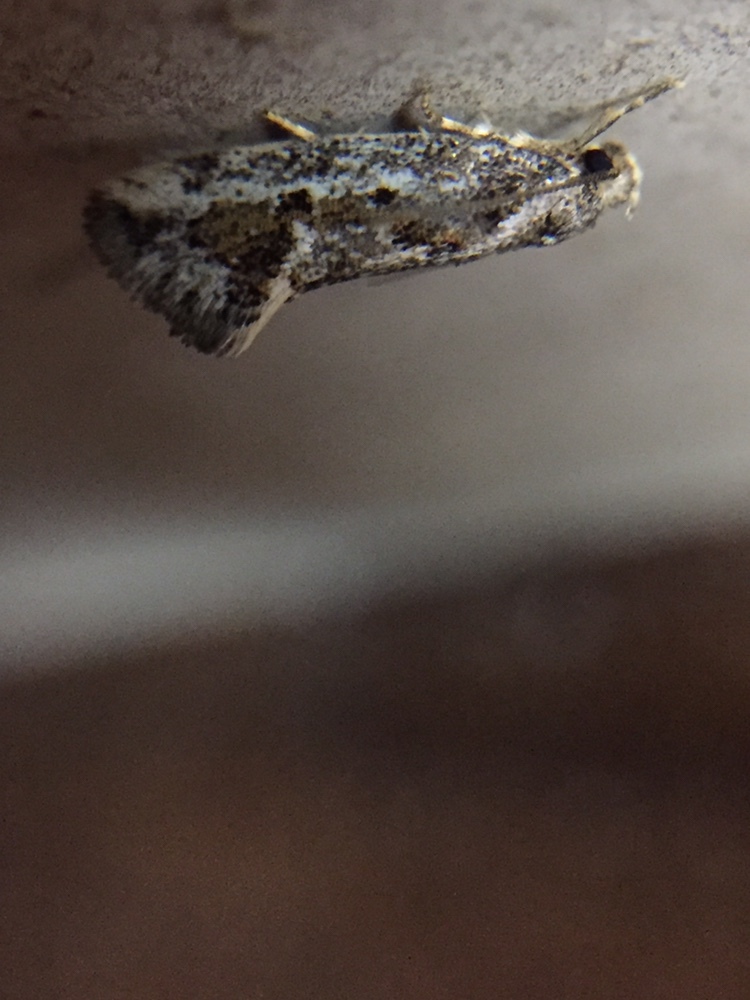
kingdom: Animalia
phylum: Arthropoda
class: Insecta
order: Lepidoptera
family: Oecophoridae
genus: Tingena
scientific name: Tingena hemimochla
